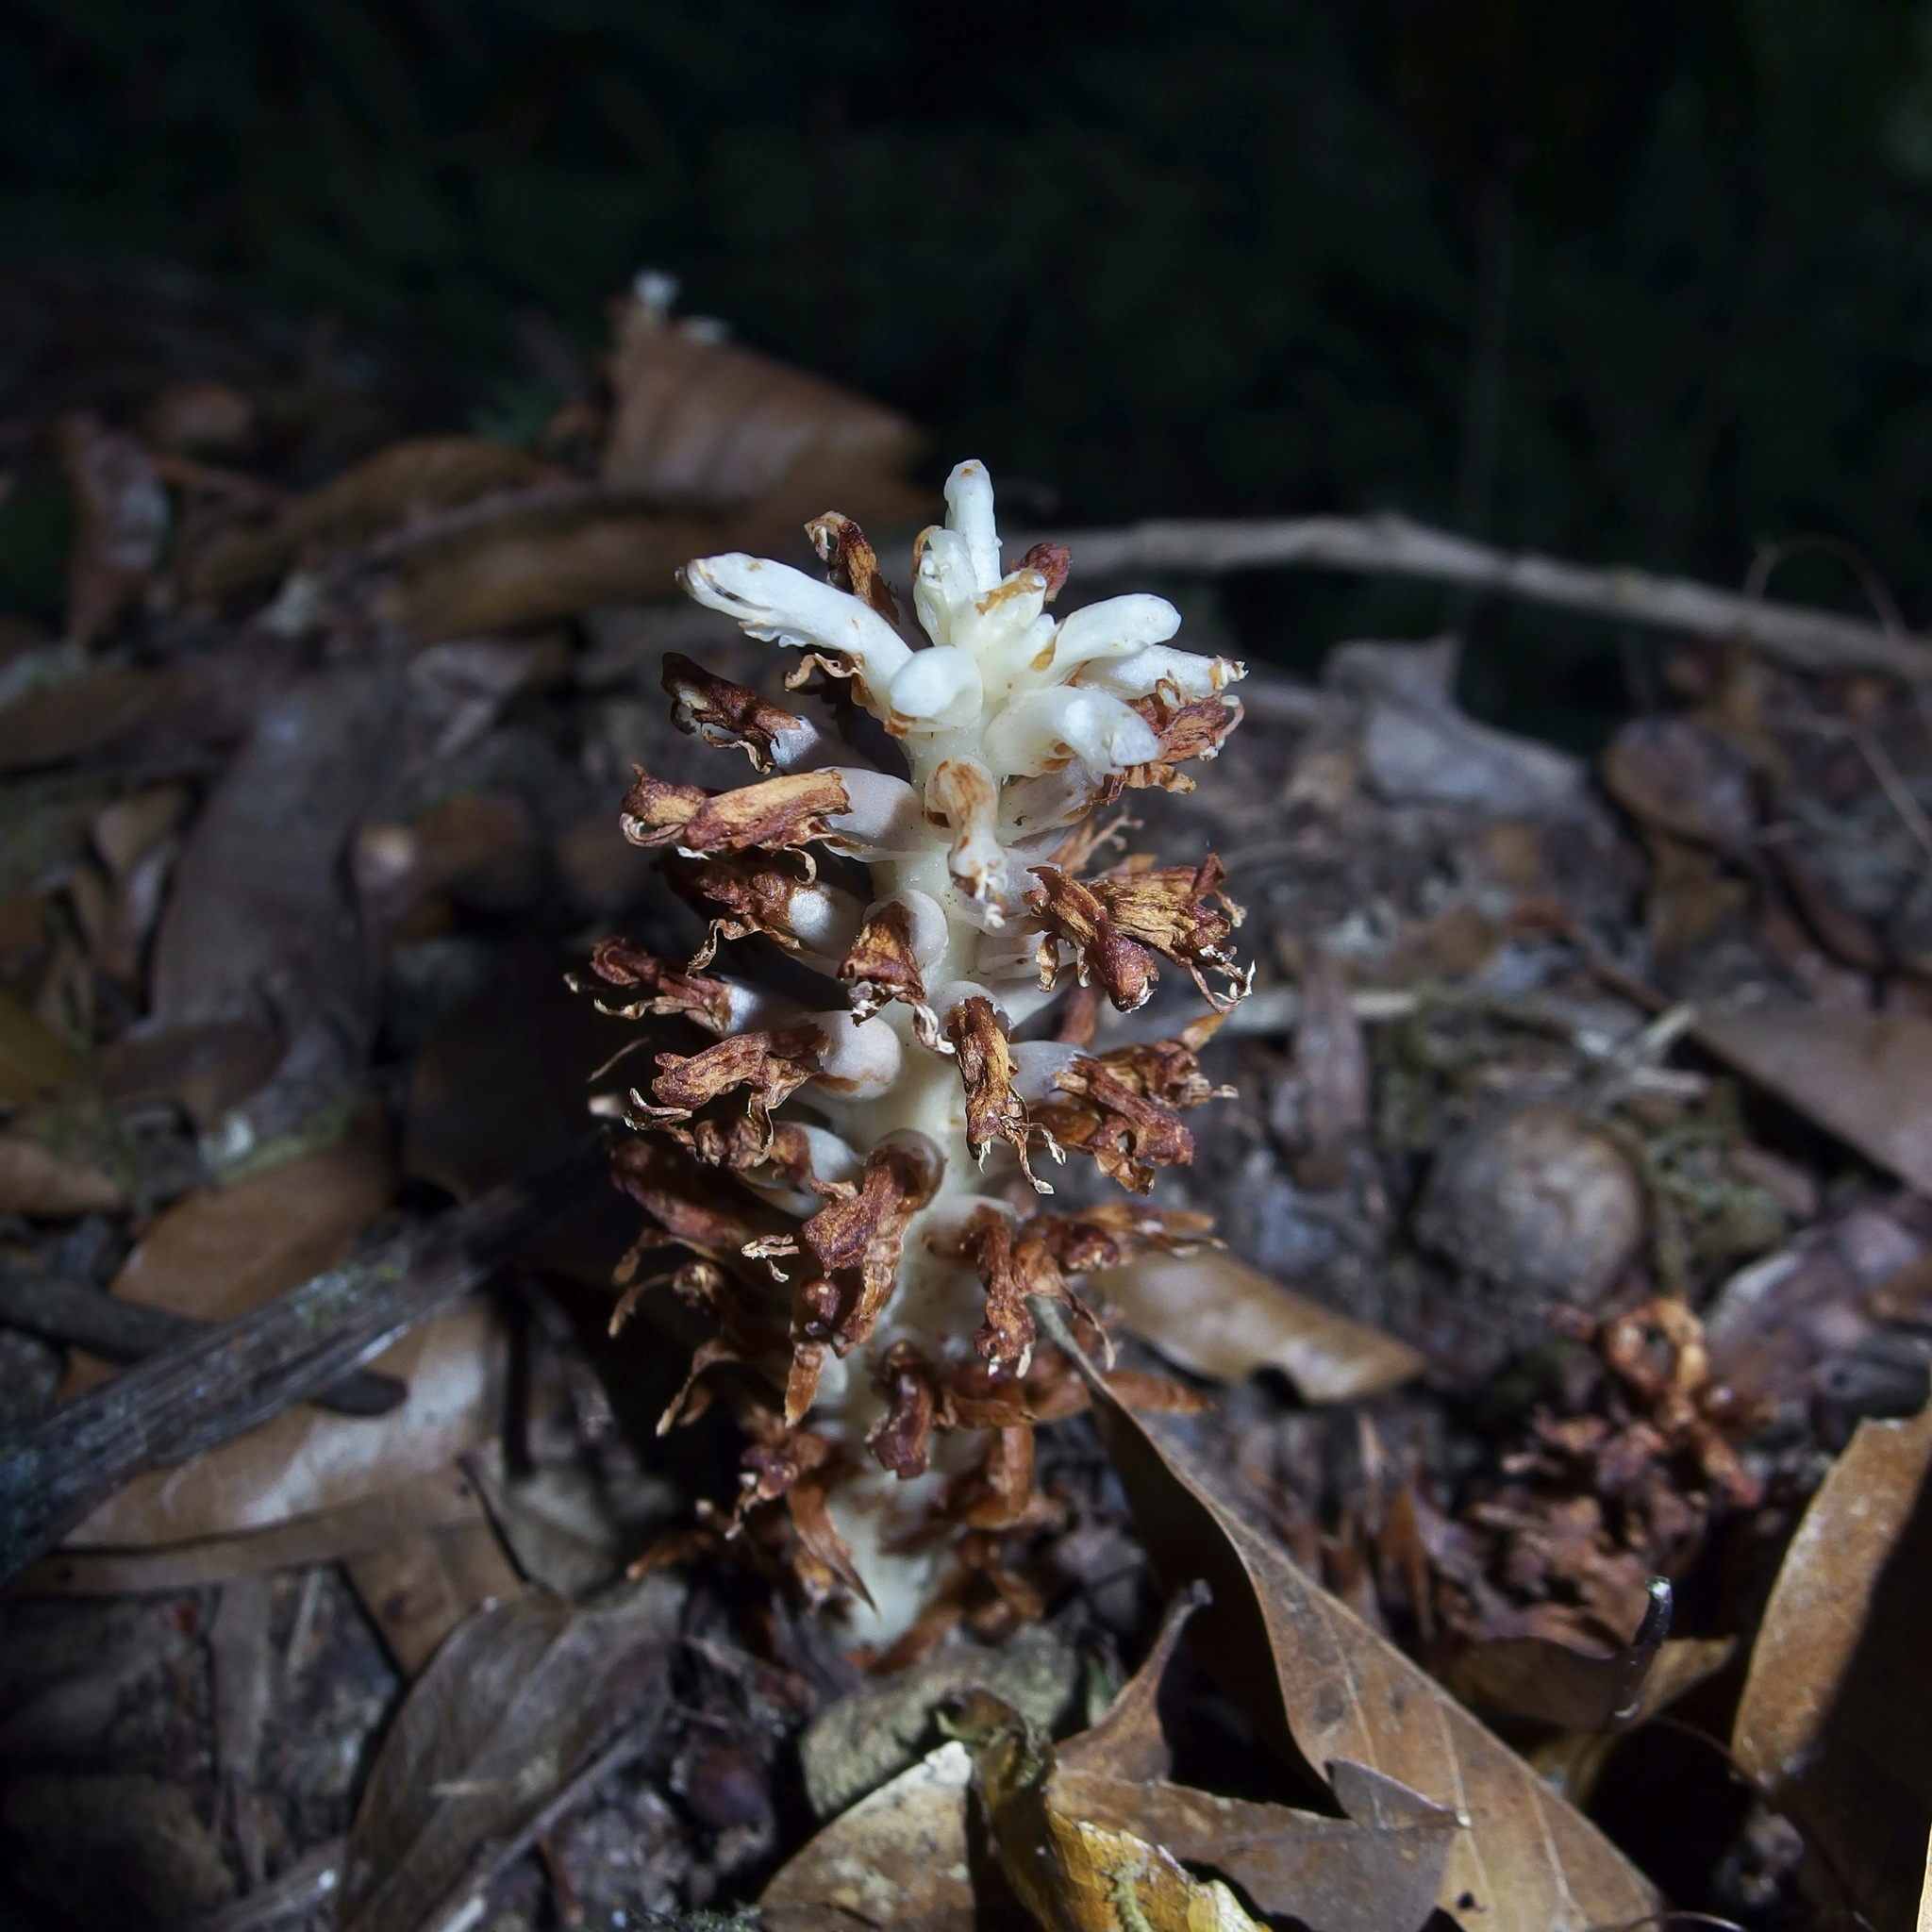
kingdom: Plantae
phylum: Tracheophyta
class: Magnoliopsida
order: Lamiales
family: Orobanchaceae
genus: Conopholis
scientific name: Conopholis alpina
